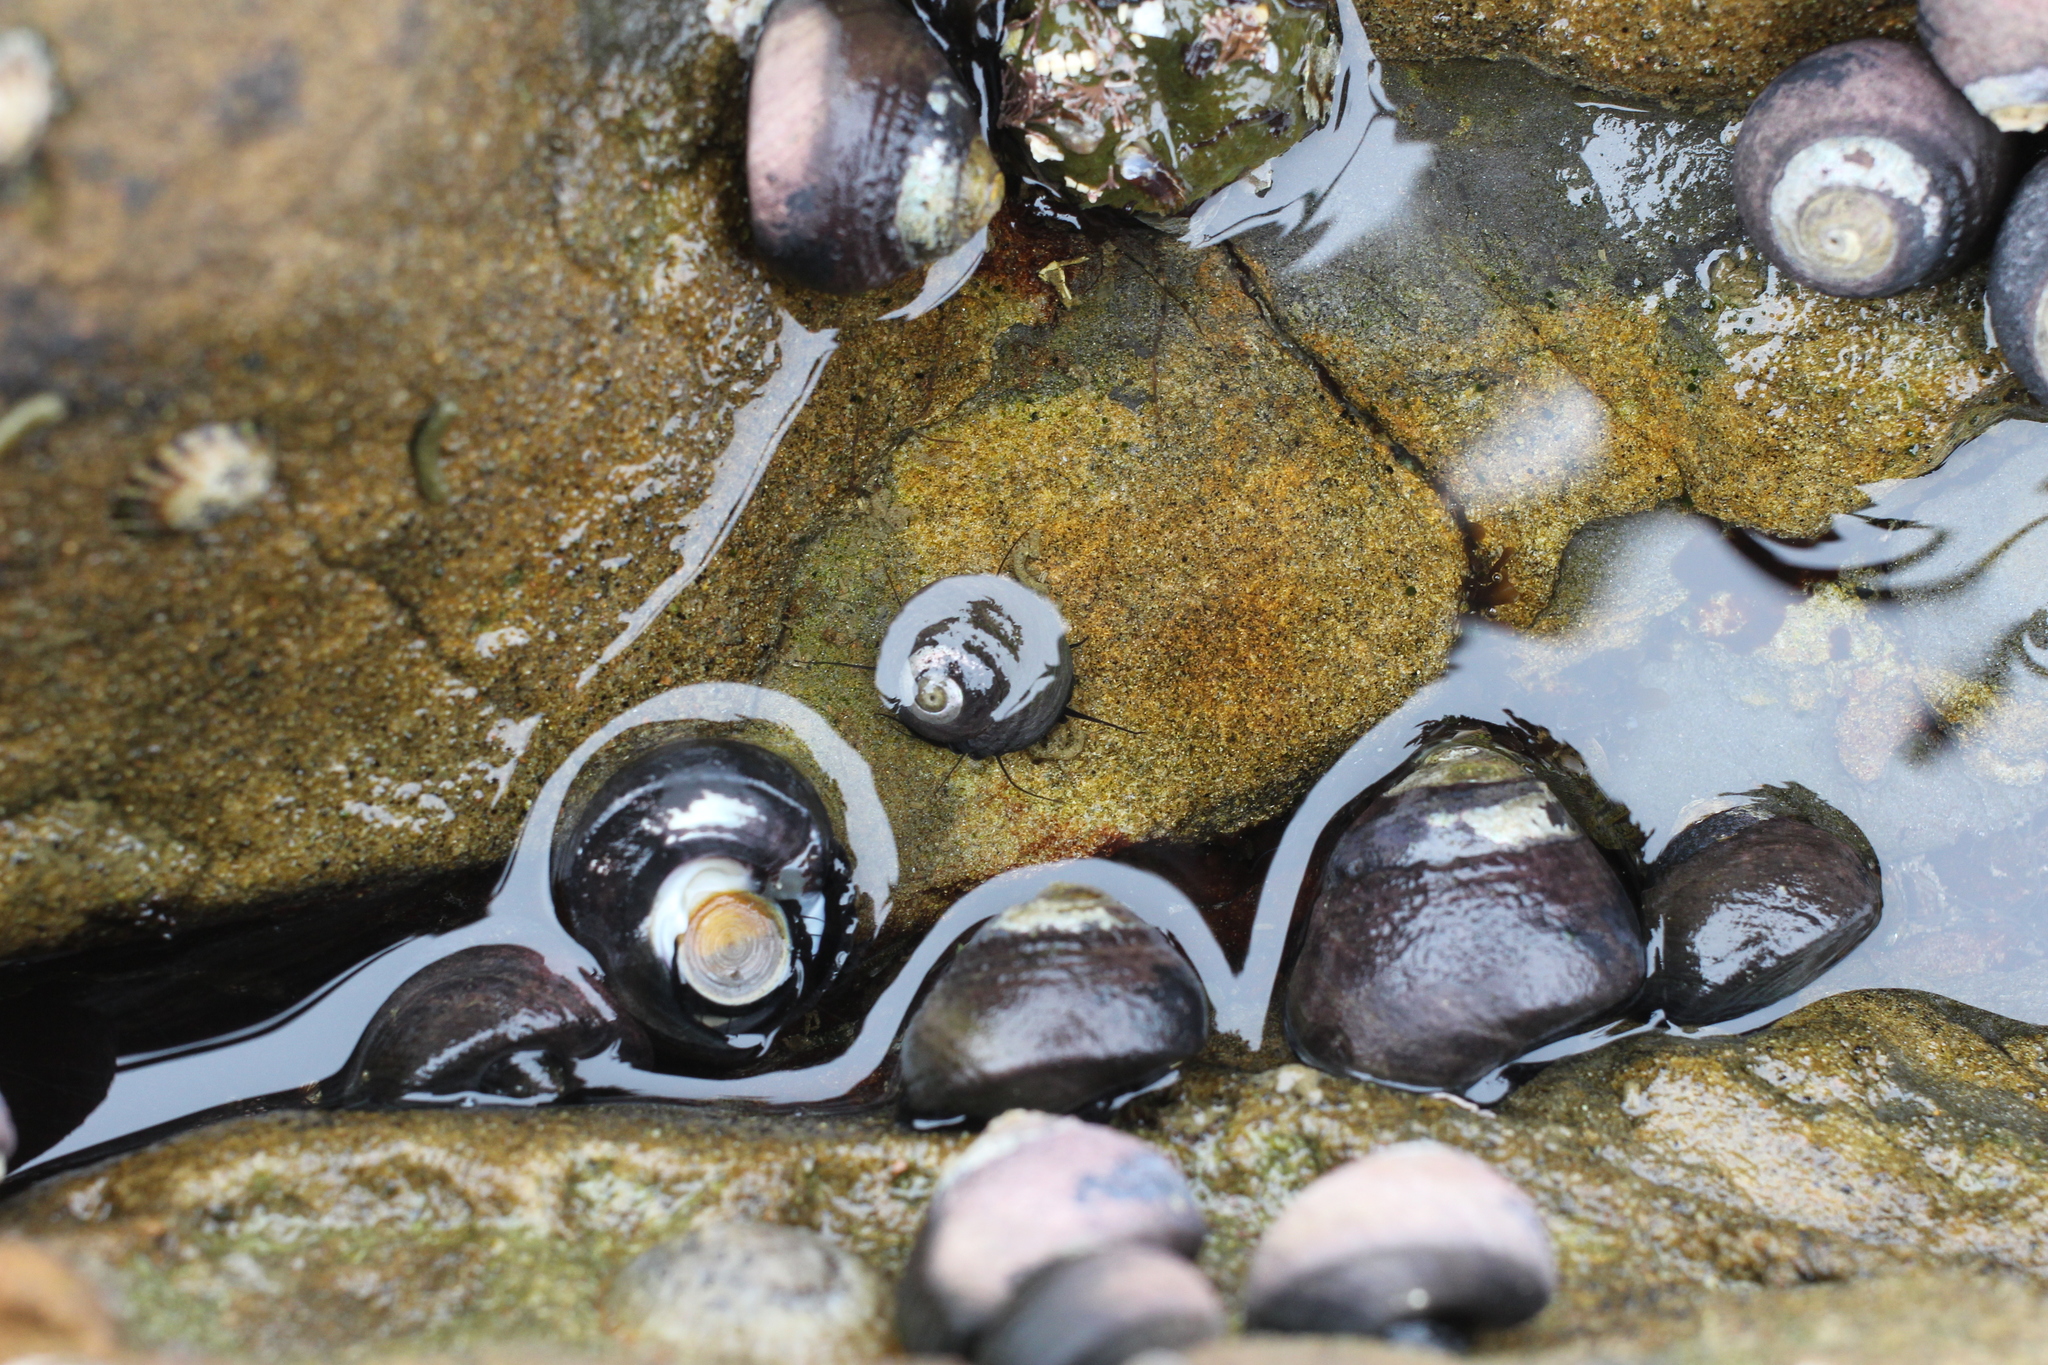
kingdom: Animalia
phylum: Mollusca
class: Gastropoda
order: Trochida
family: Tegulidae
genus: Tegula
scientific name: Tegula funebralis
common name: Black tegula
